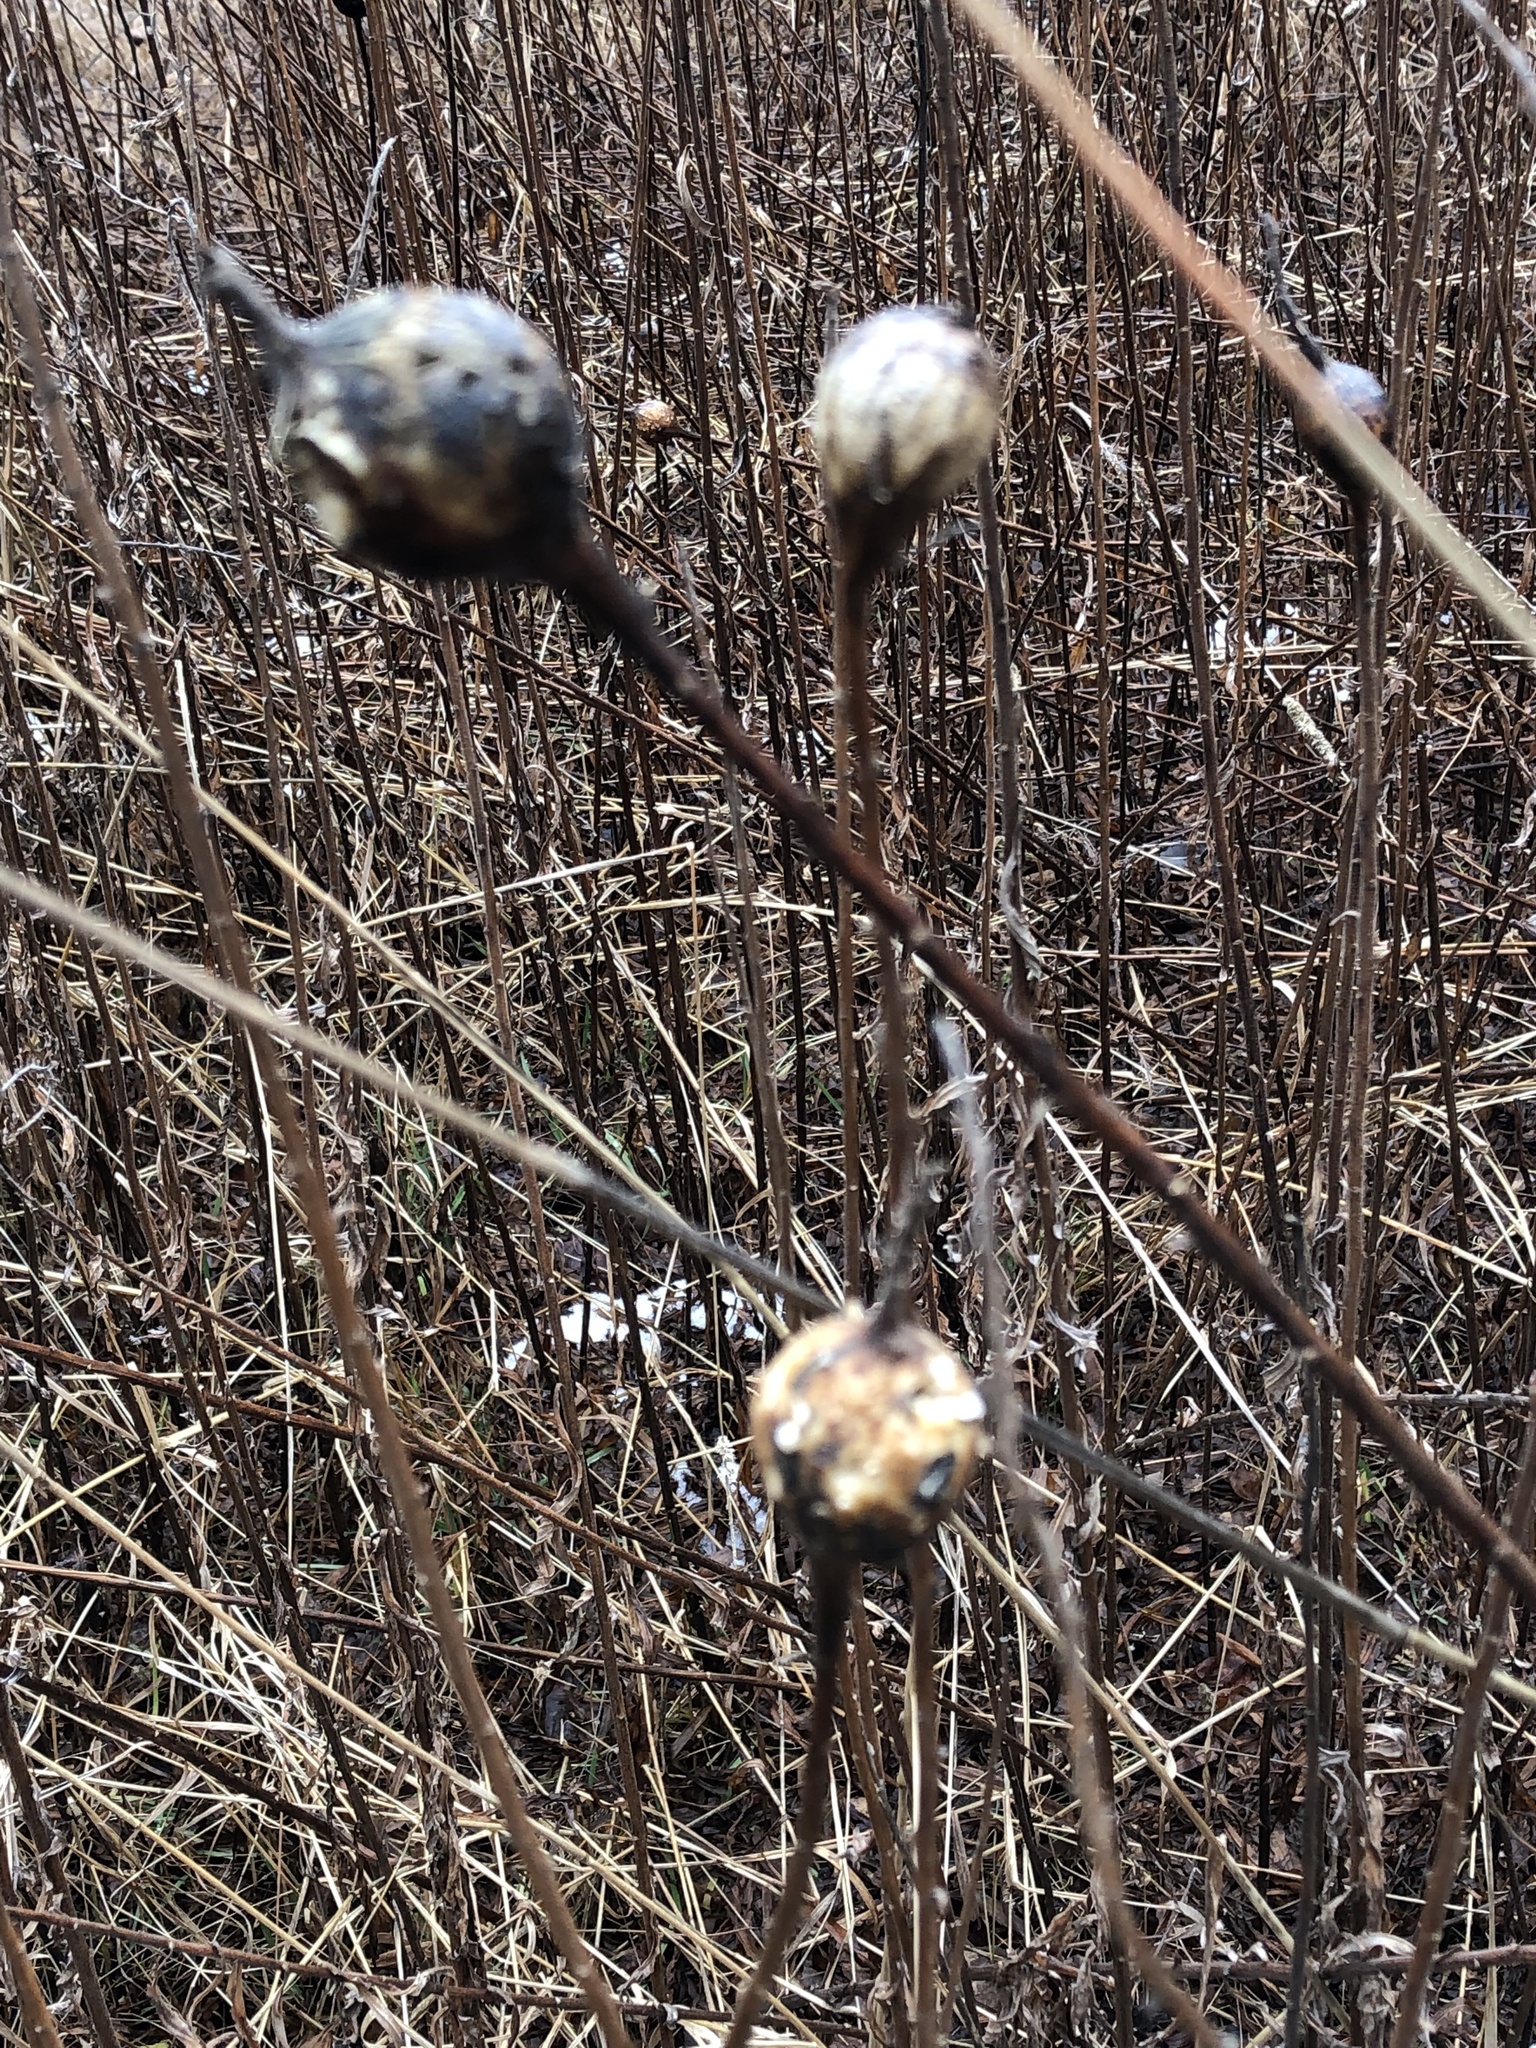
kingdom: Animalia
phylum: Arthropoda
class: Insecta
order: Diptera
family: Tephritidae
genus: Eurosta
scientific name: Eurosta solidaginis
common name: Goldenrod gall fly
